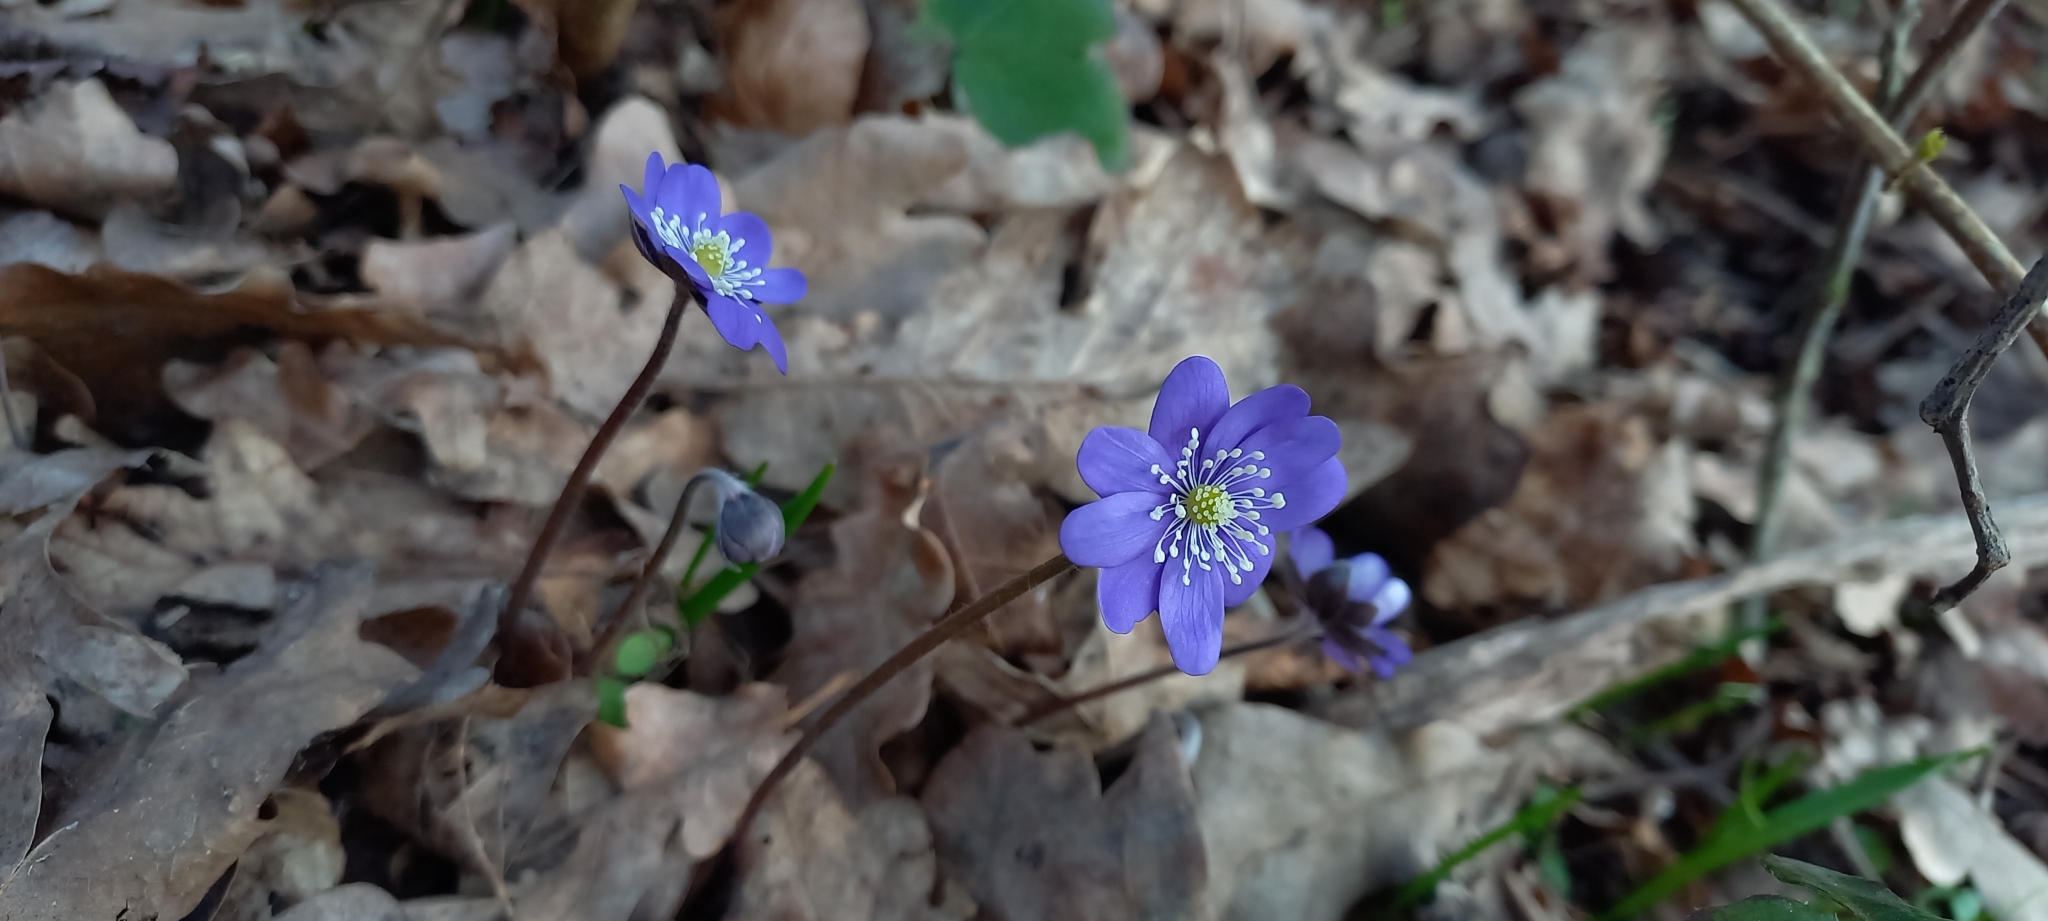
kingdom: Plantae
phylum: Tracheophyta
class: Magnoliopsida
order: Ranunculales
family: Ranunculaceae
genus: Hepatica
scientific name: Hepatica nobilis
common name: Liverleaf
